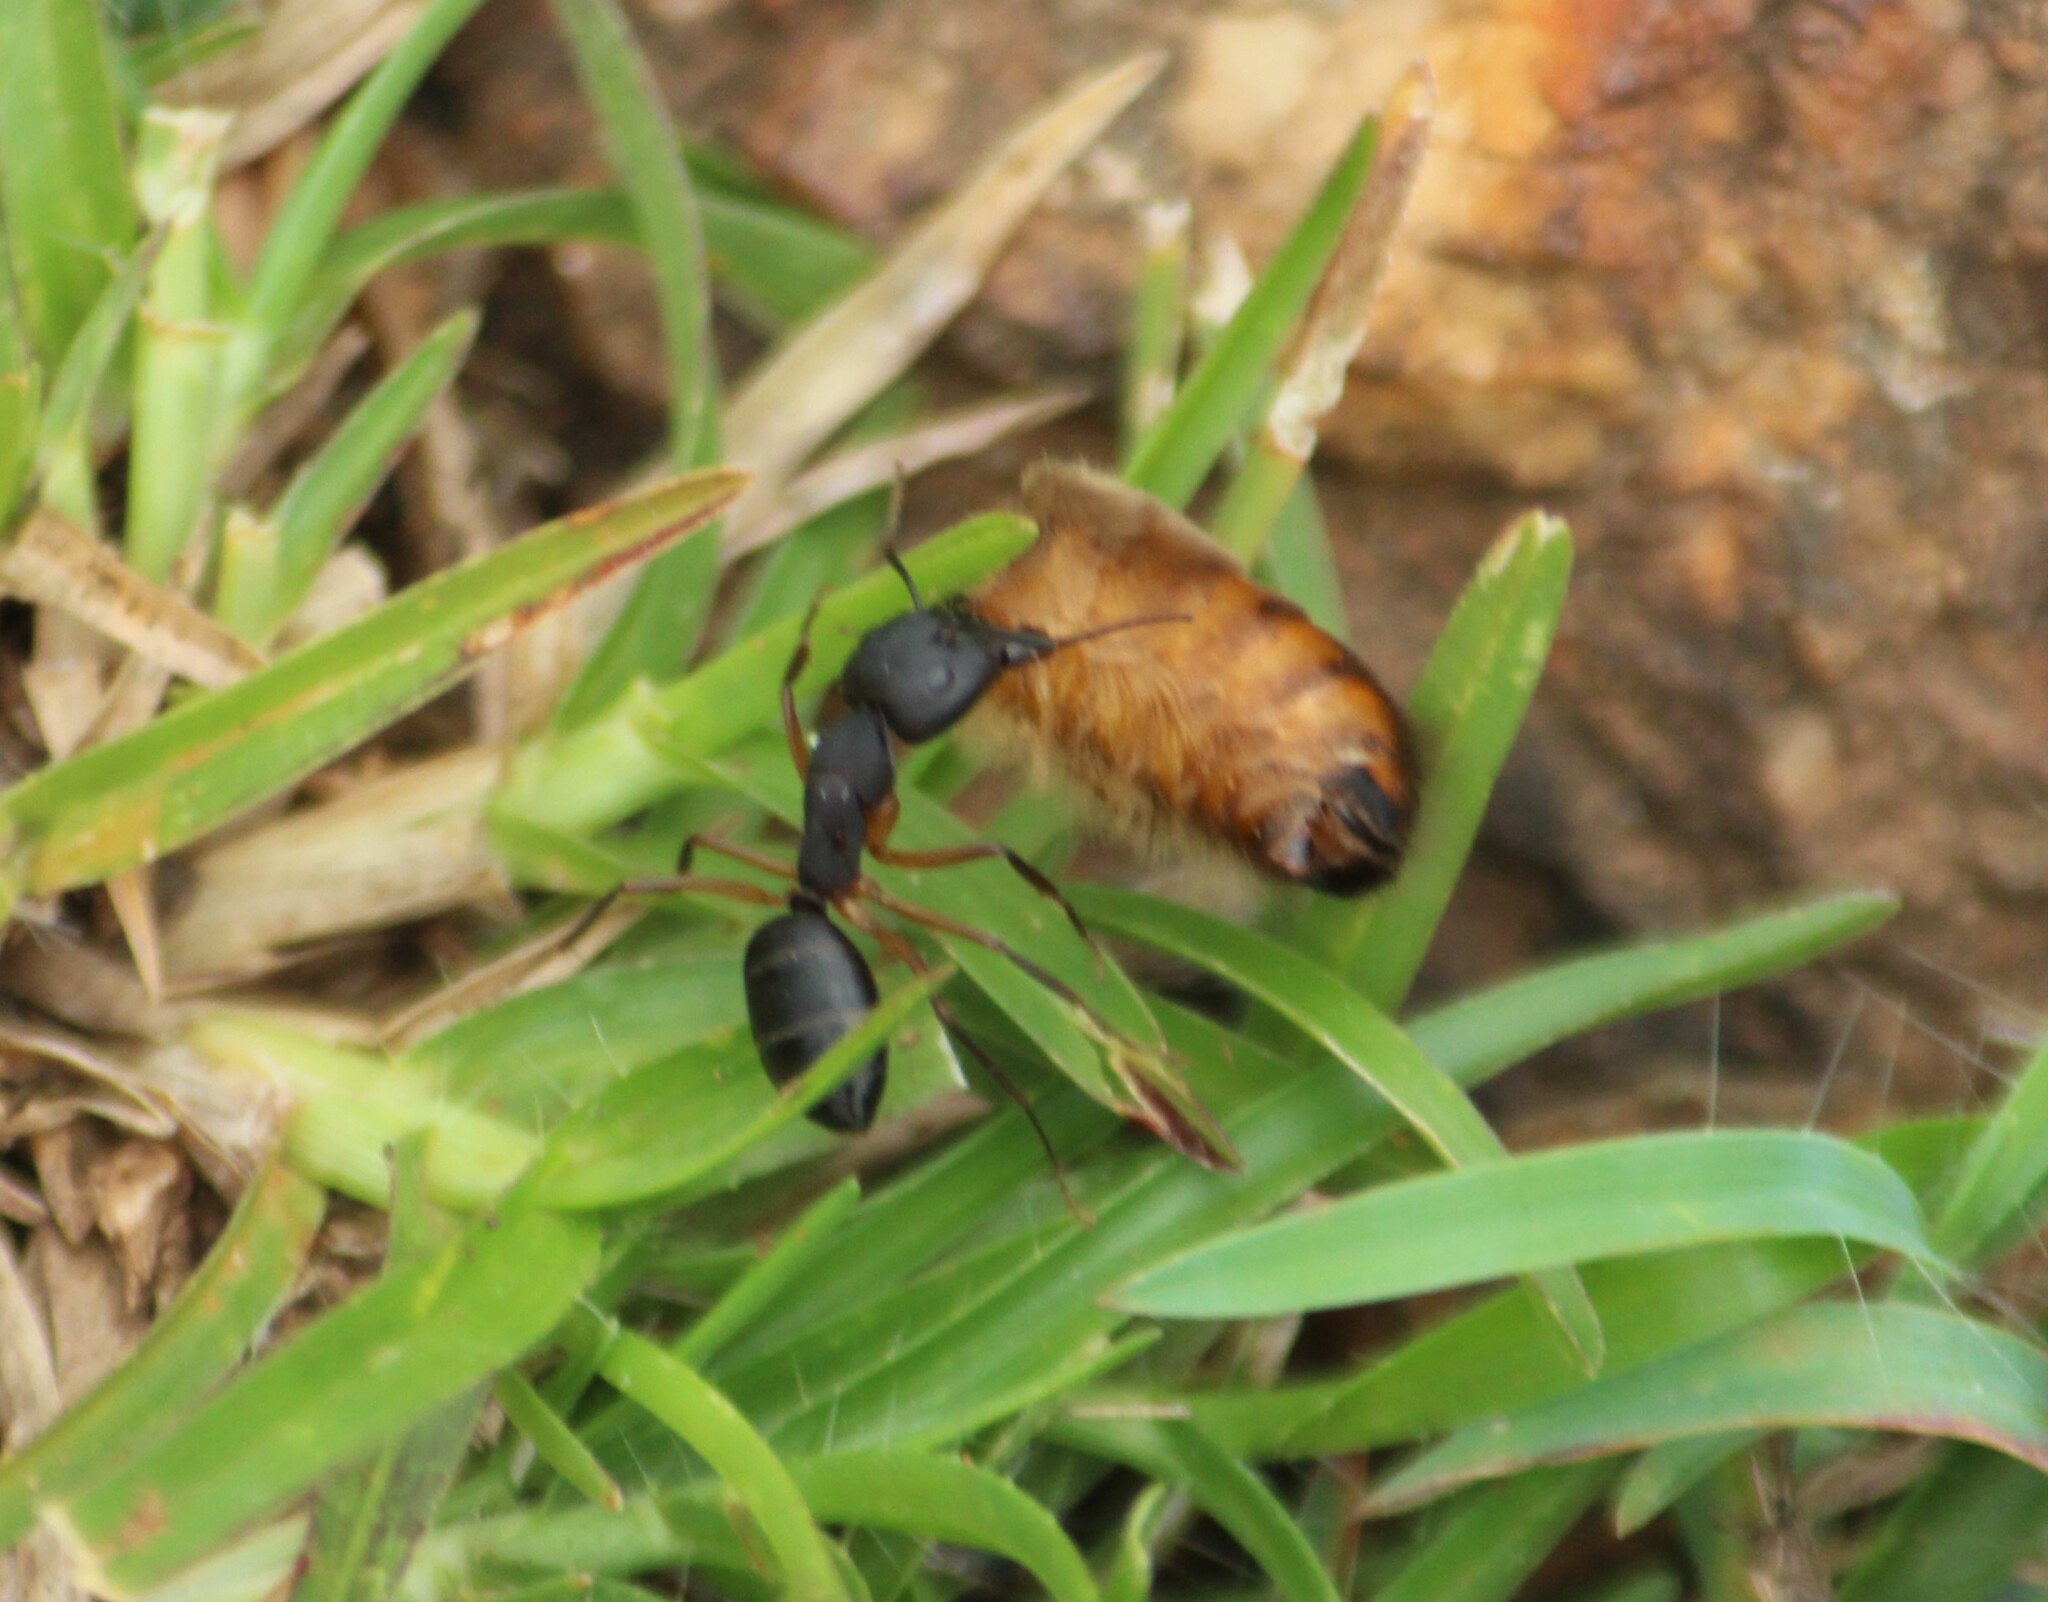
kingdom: Animalia
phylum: Arthropoda
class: Insecta
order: Hymenoptera
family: Formicidae
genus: Camponotus
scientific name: Camponotus compressus
